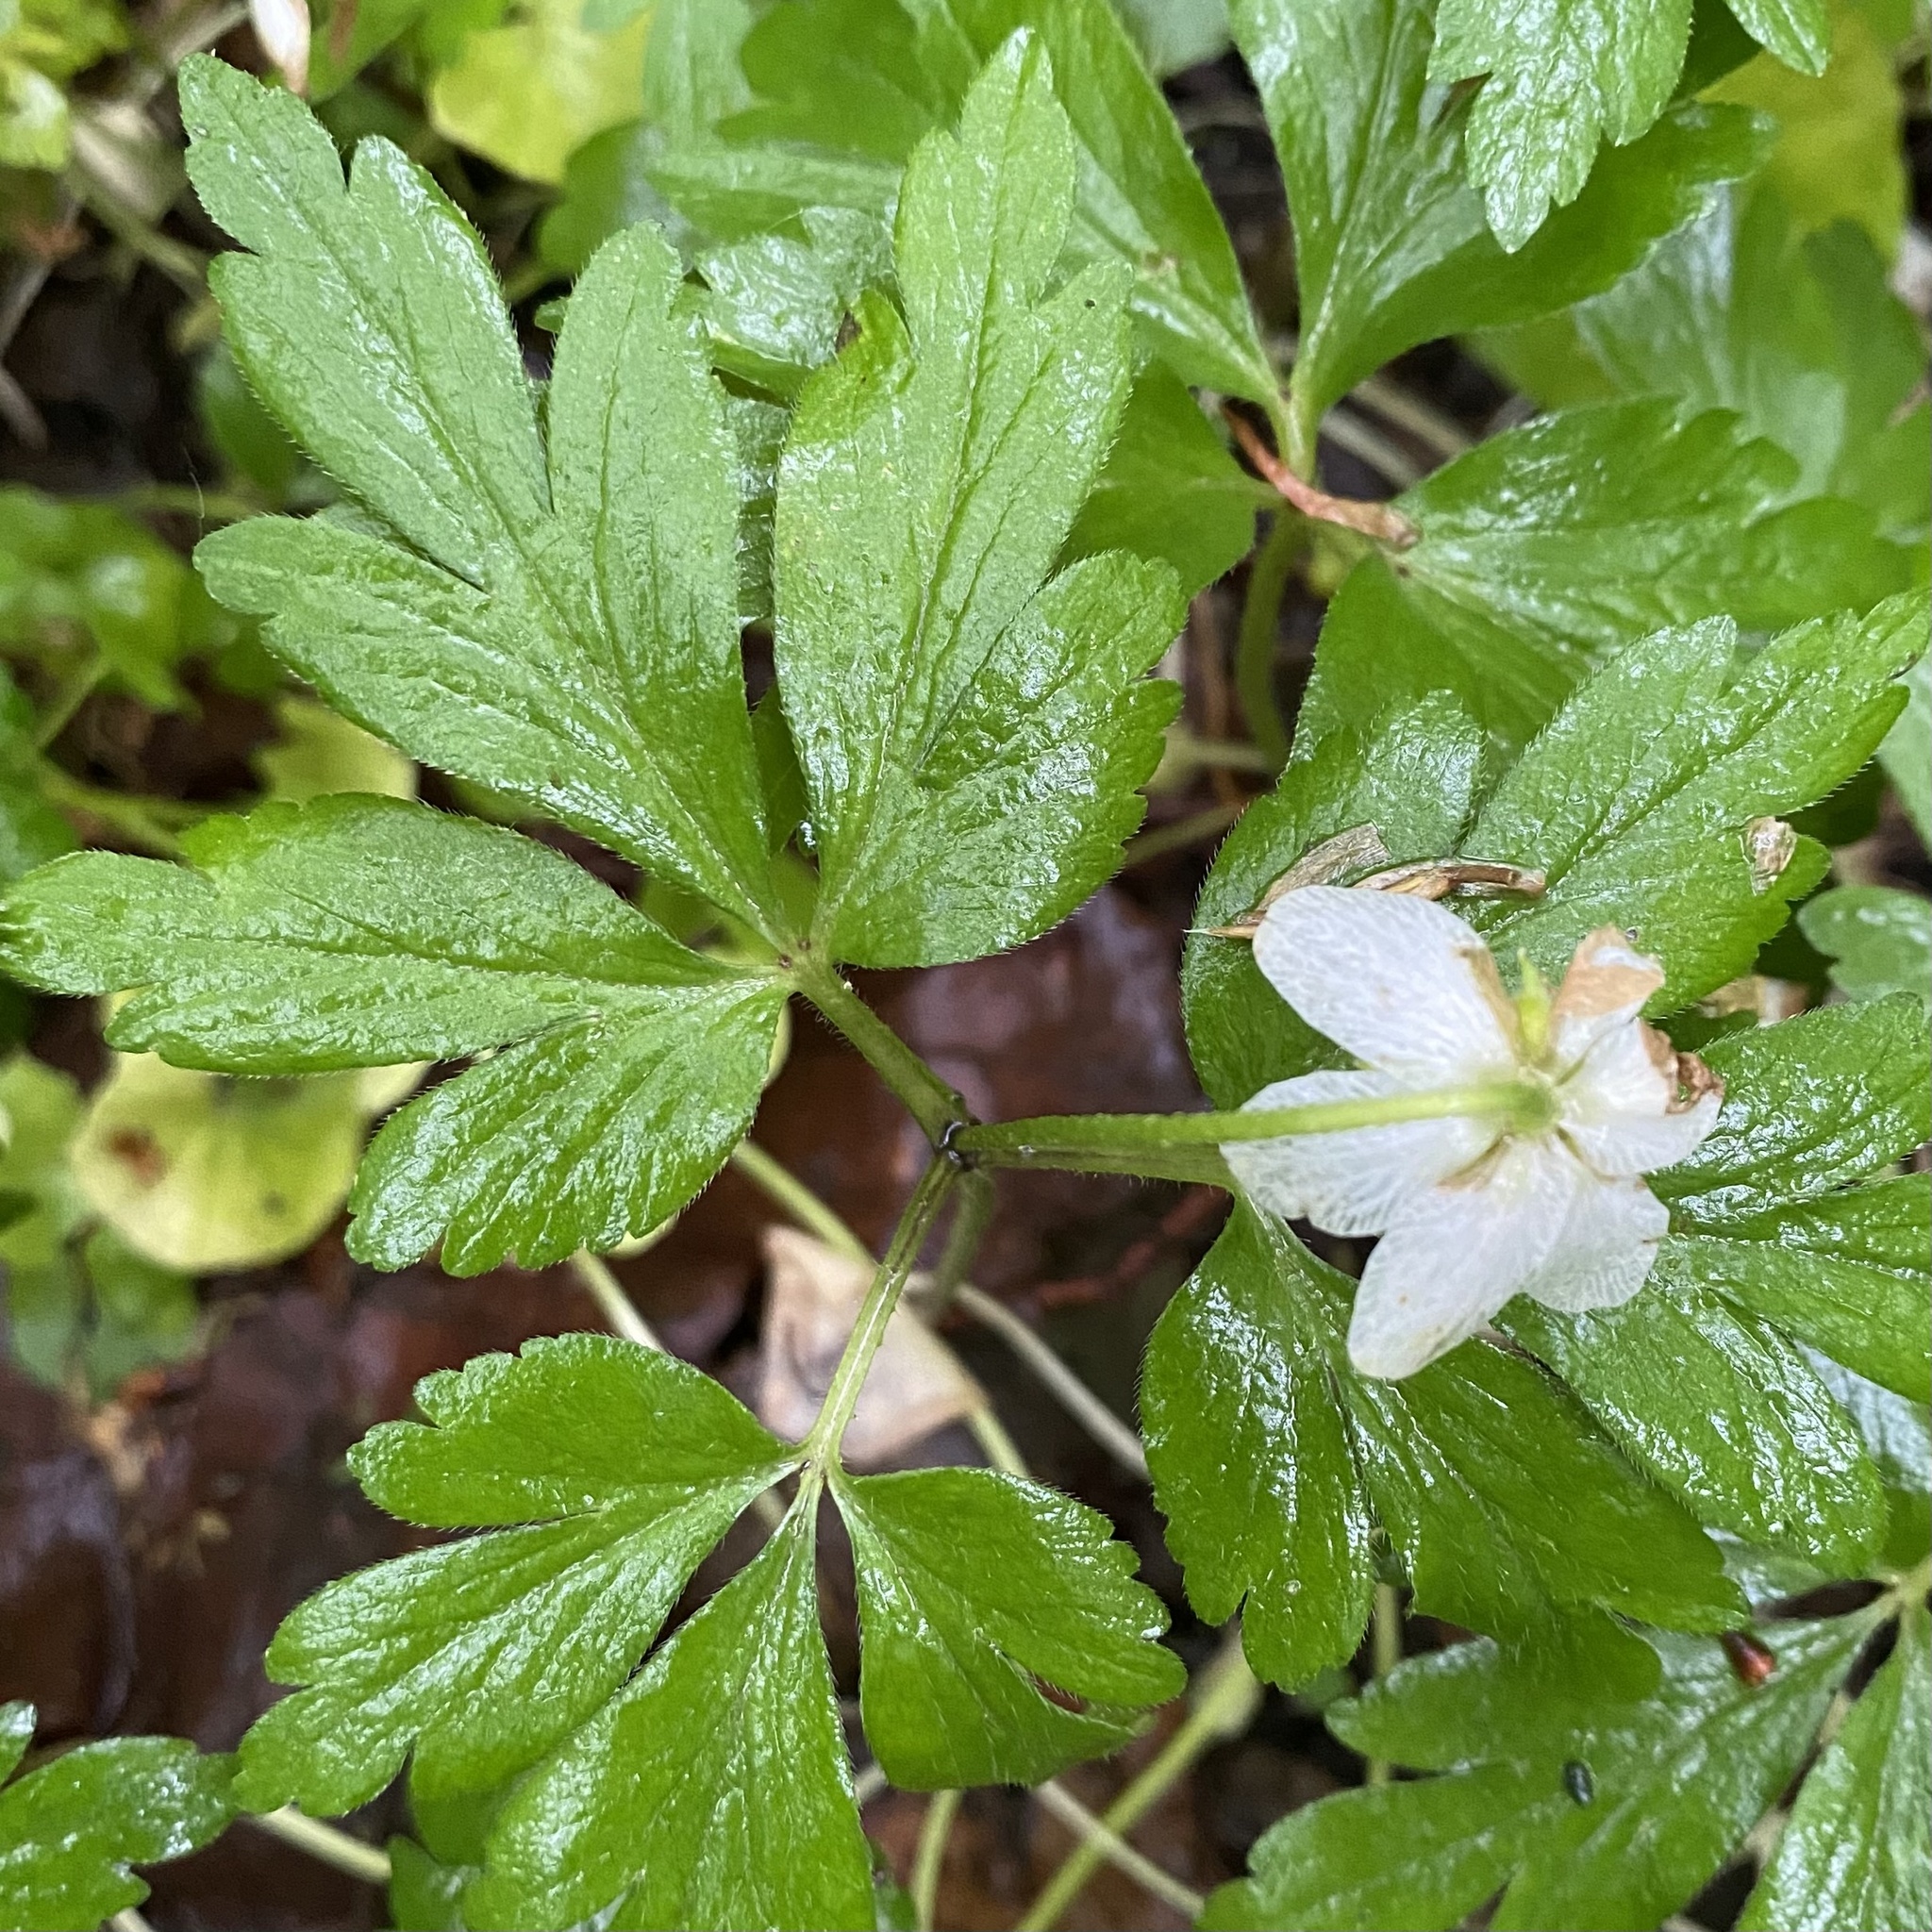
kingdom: Plantae
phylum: Tracheophyta
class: Magnoliopsida
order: Ranunculales
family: Ranunculaceae
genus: Anemone
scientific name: Anemone nemorosa
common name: Wood anemone
